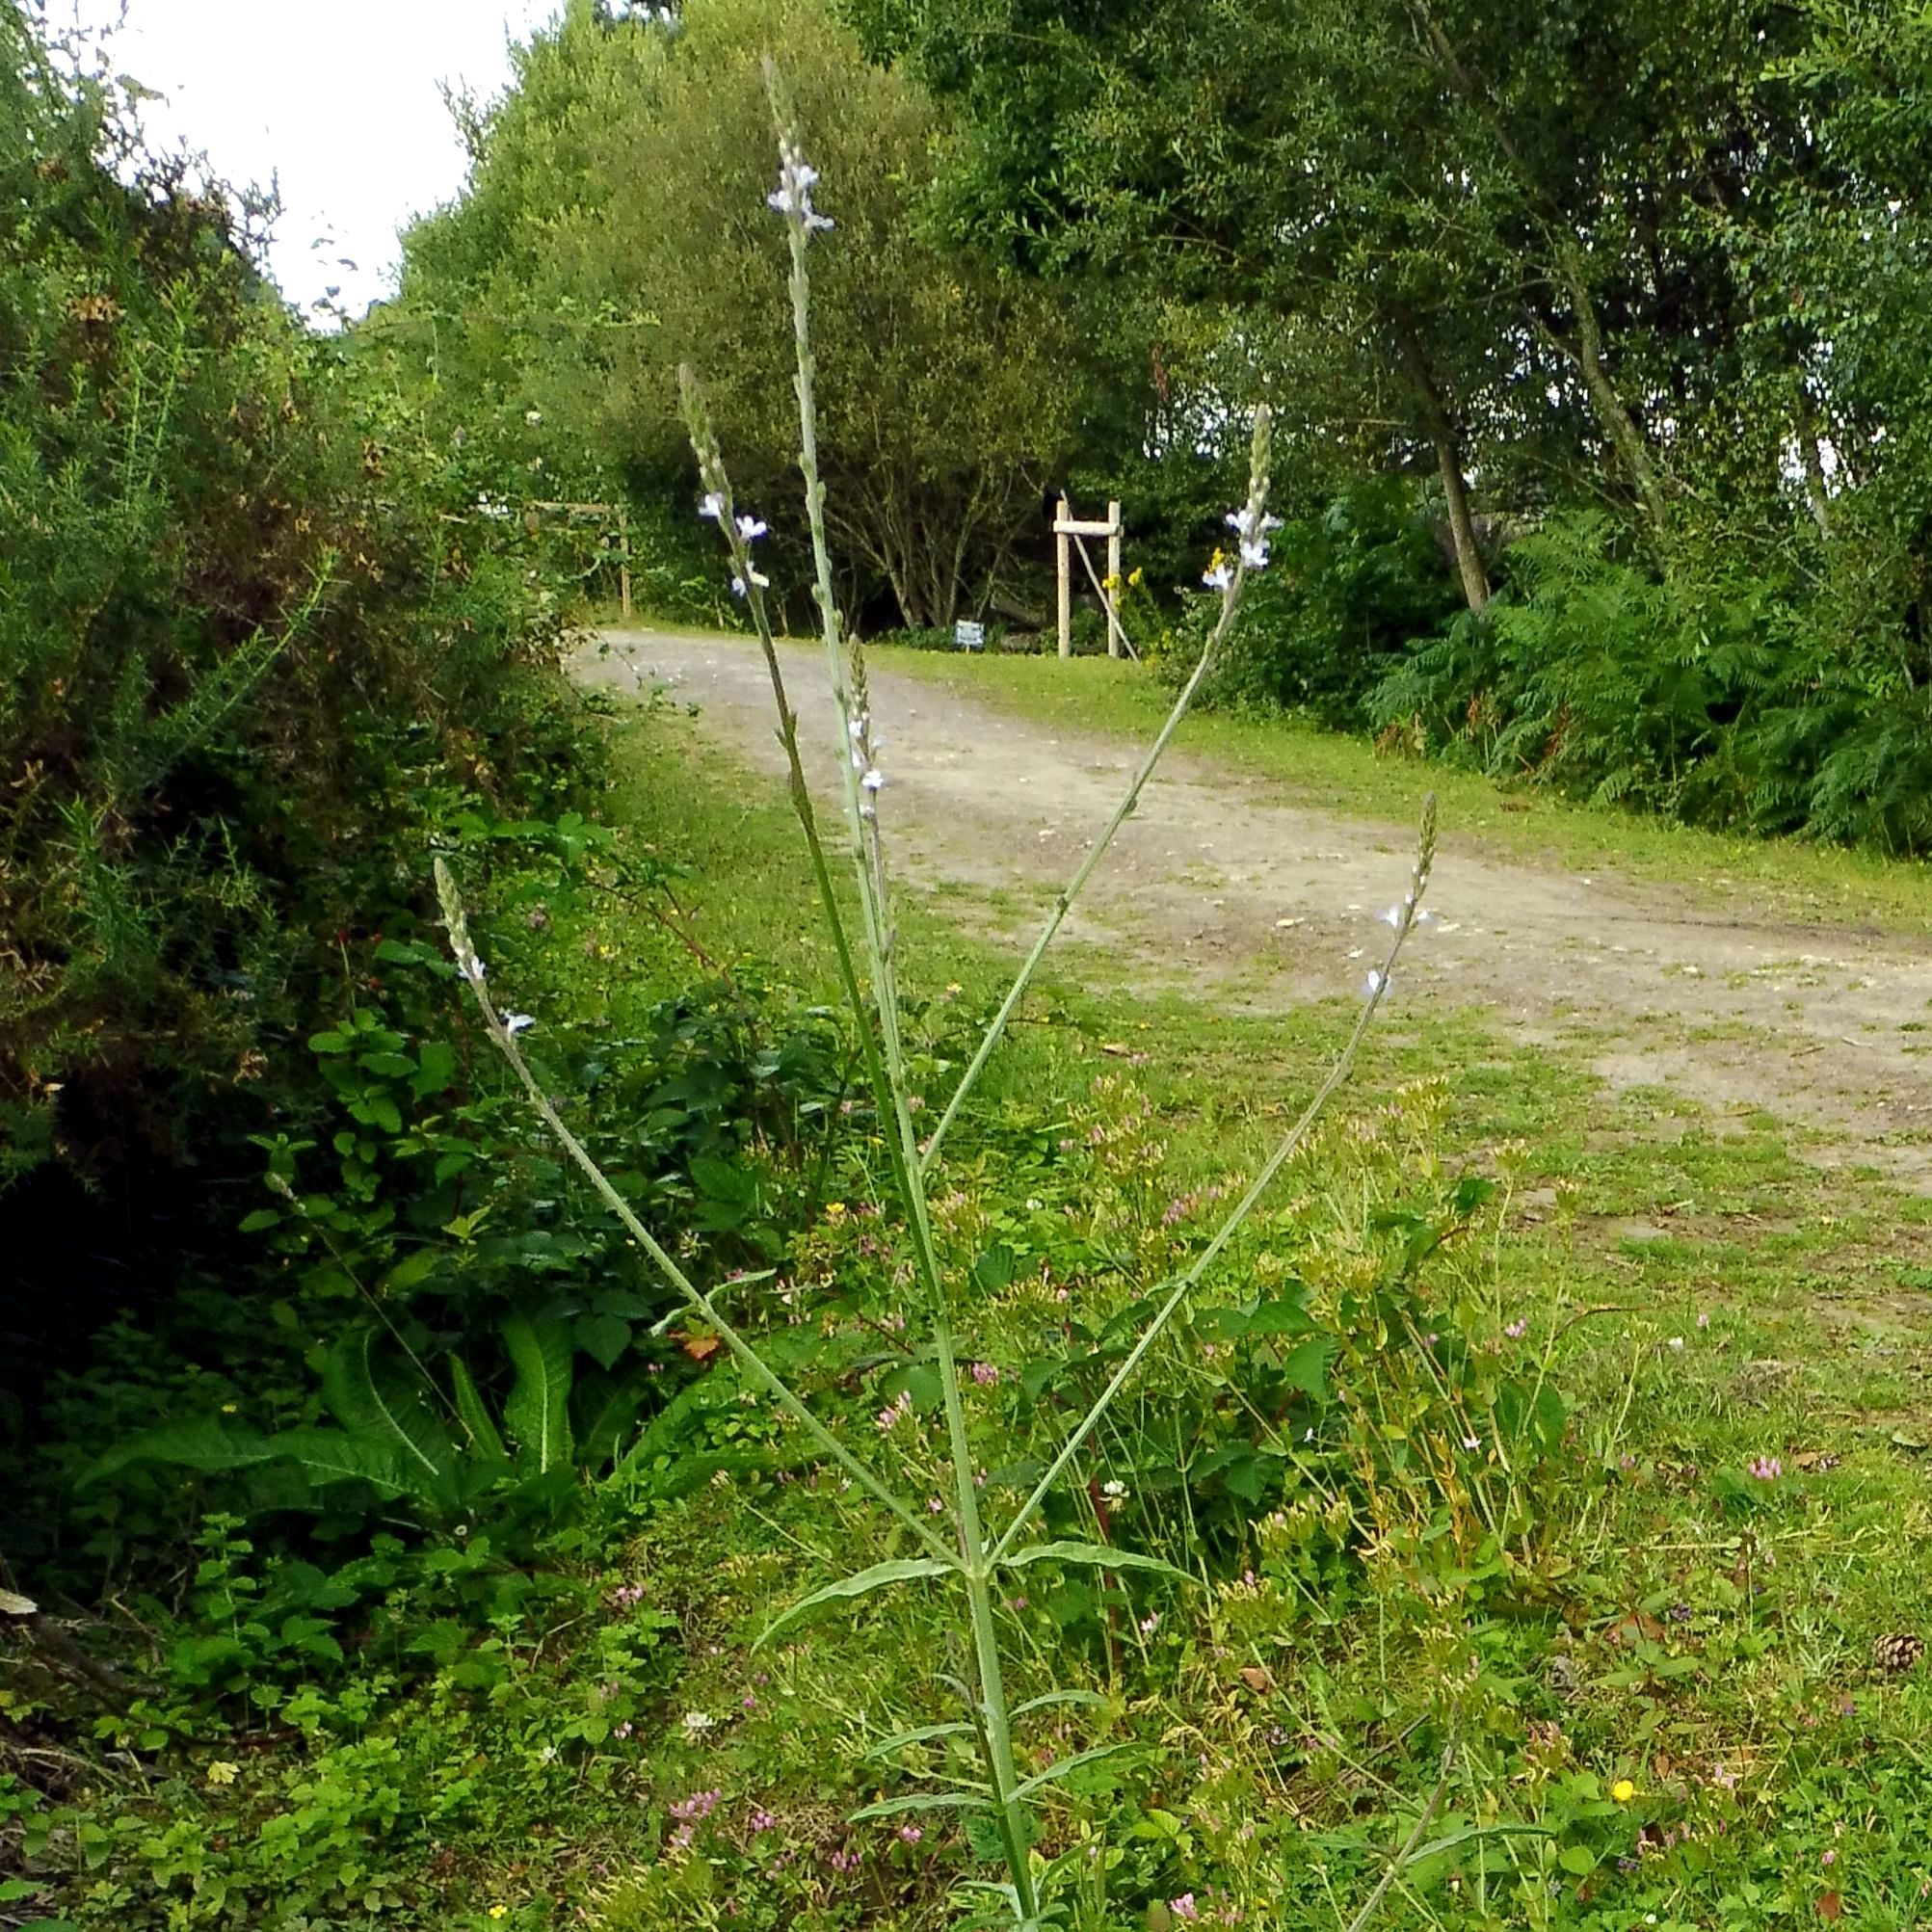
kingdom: Plantae
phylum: Tracheophyta
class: Magnoliopsida
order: Lamiales
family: Verbenaceae
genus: Verbena
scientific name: Verbena officinalis
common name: Vervain
